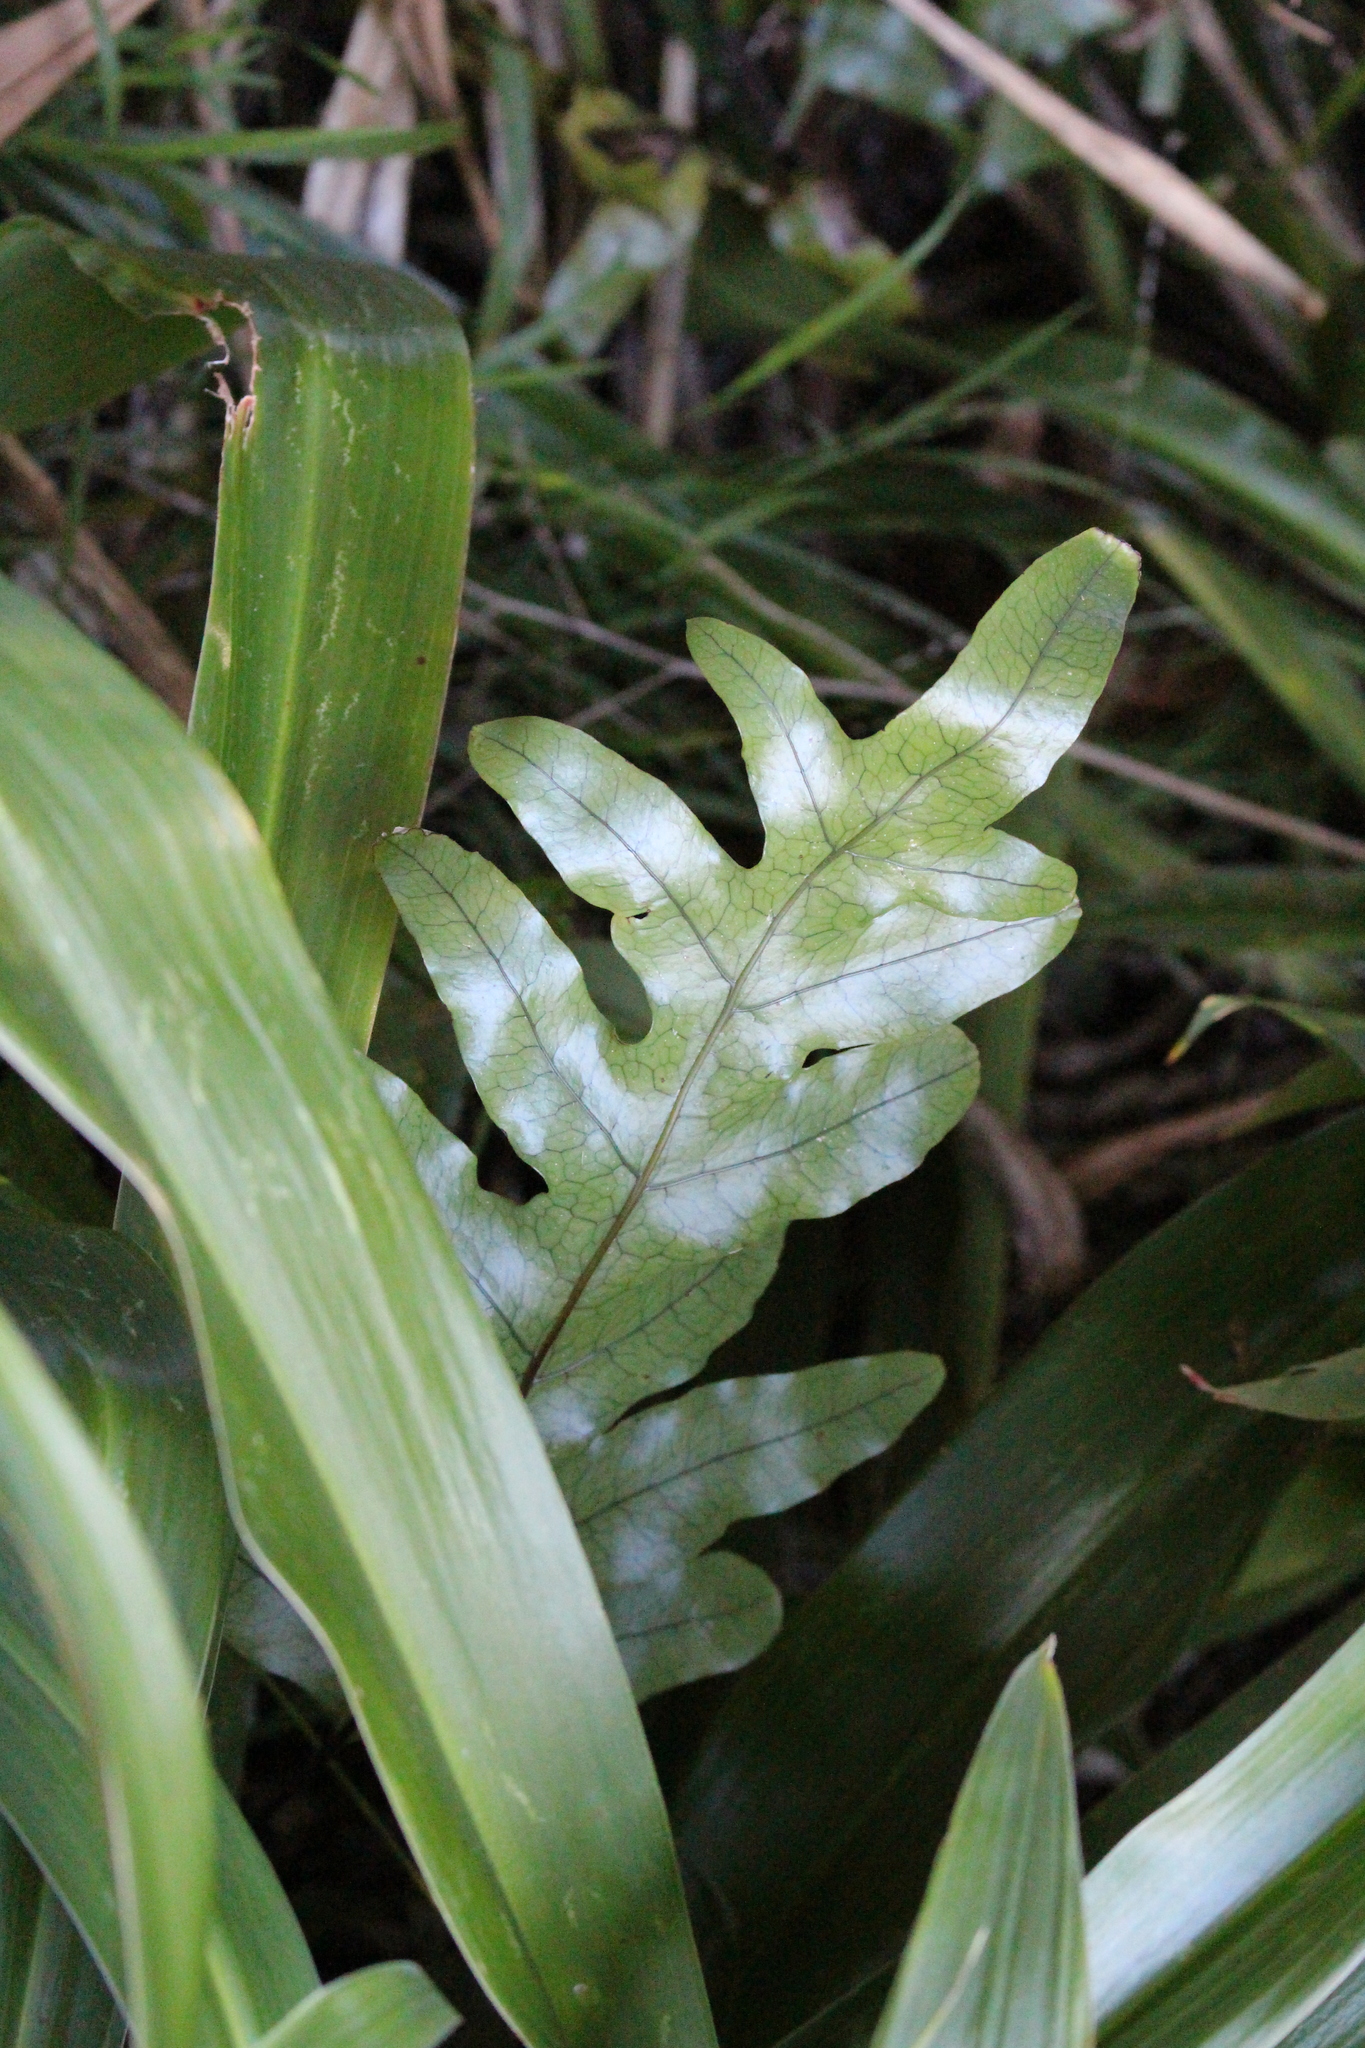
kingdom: Plantae
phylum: Tracheophyta
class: Polypodiopsida
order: Polypodiales
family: Polypodiaceae
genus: Lecanopteris
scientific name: Lecanopteris pustulata
